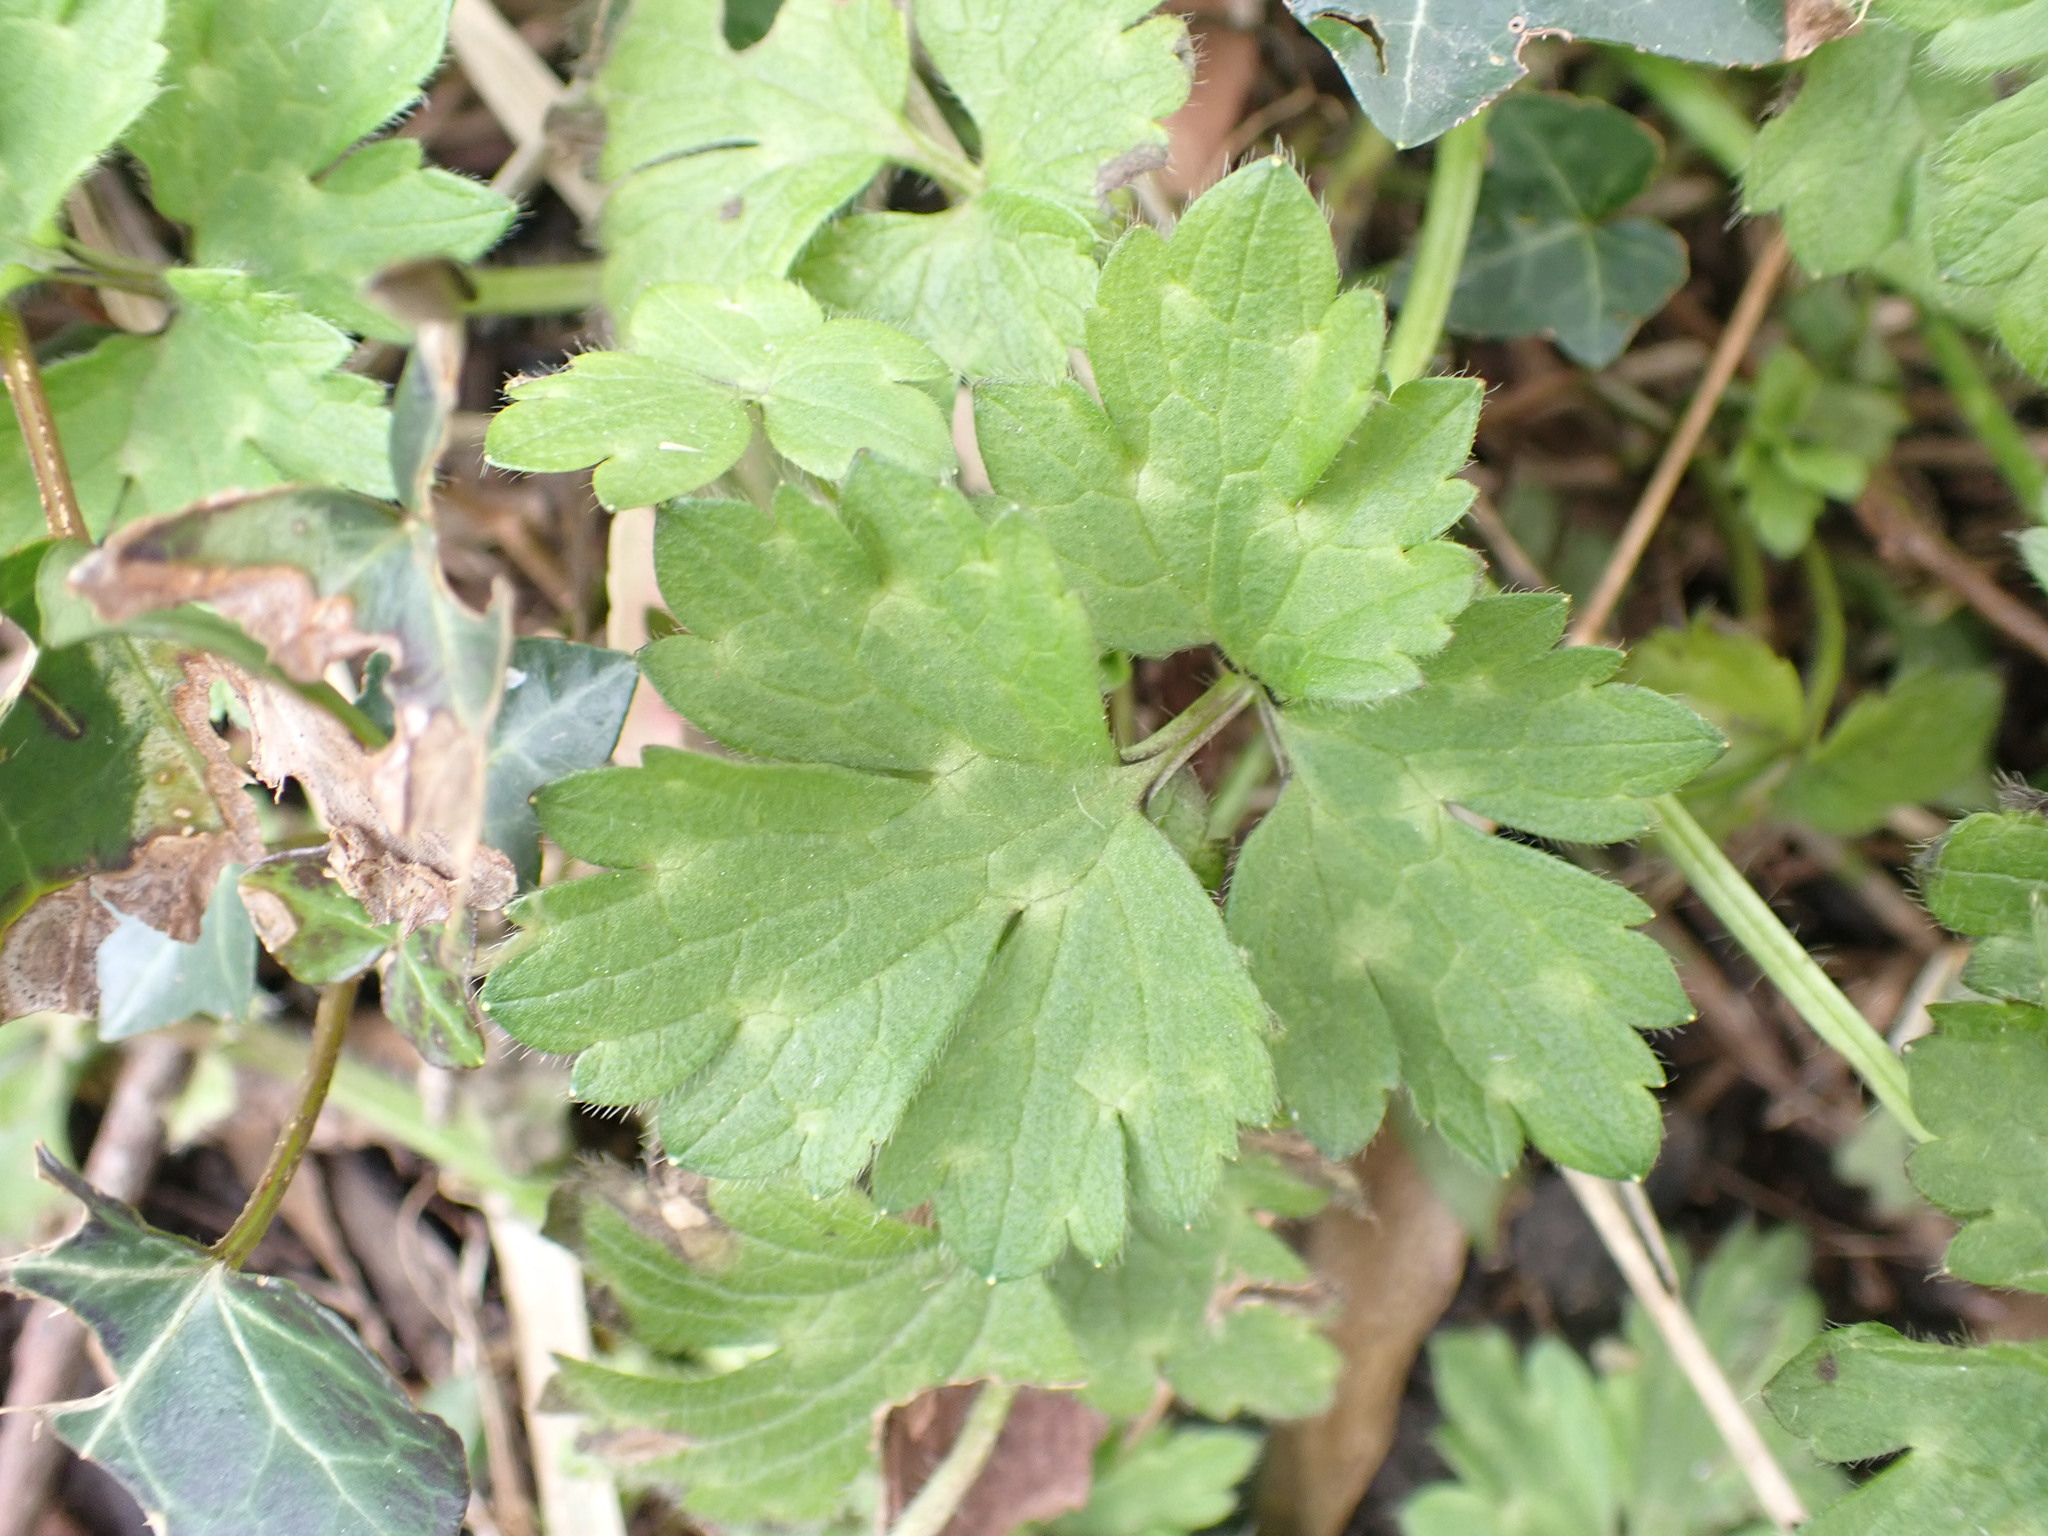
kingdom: Plantae
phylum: Tracheophyta
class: Magnoliopsida
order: Ranunculales
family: Ranunculaceae
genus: Ranunculus
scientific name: Ranunculus repens
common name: Creeping buttercup
